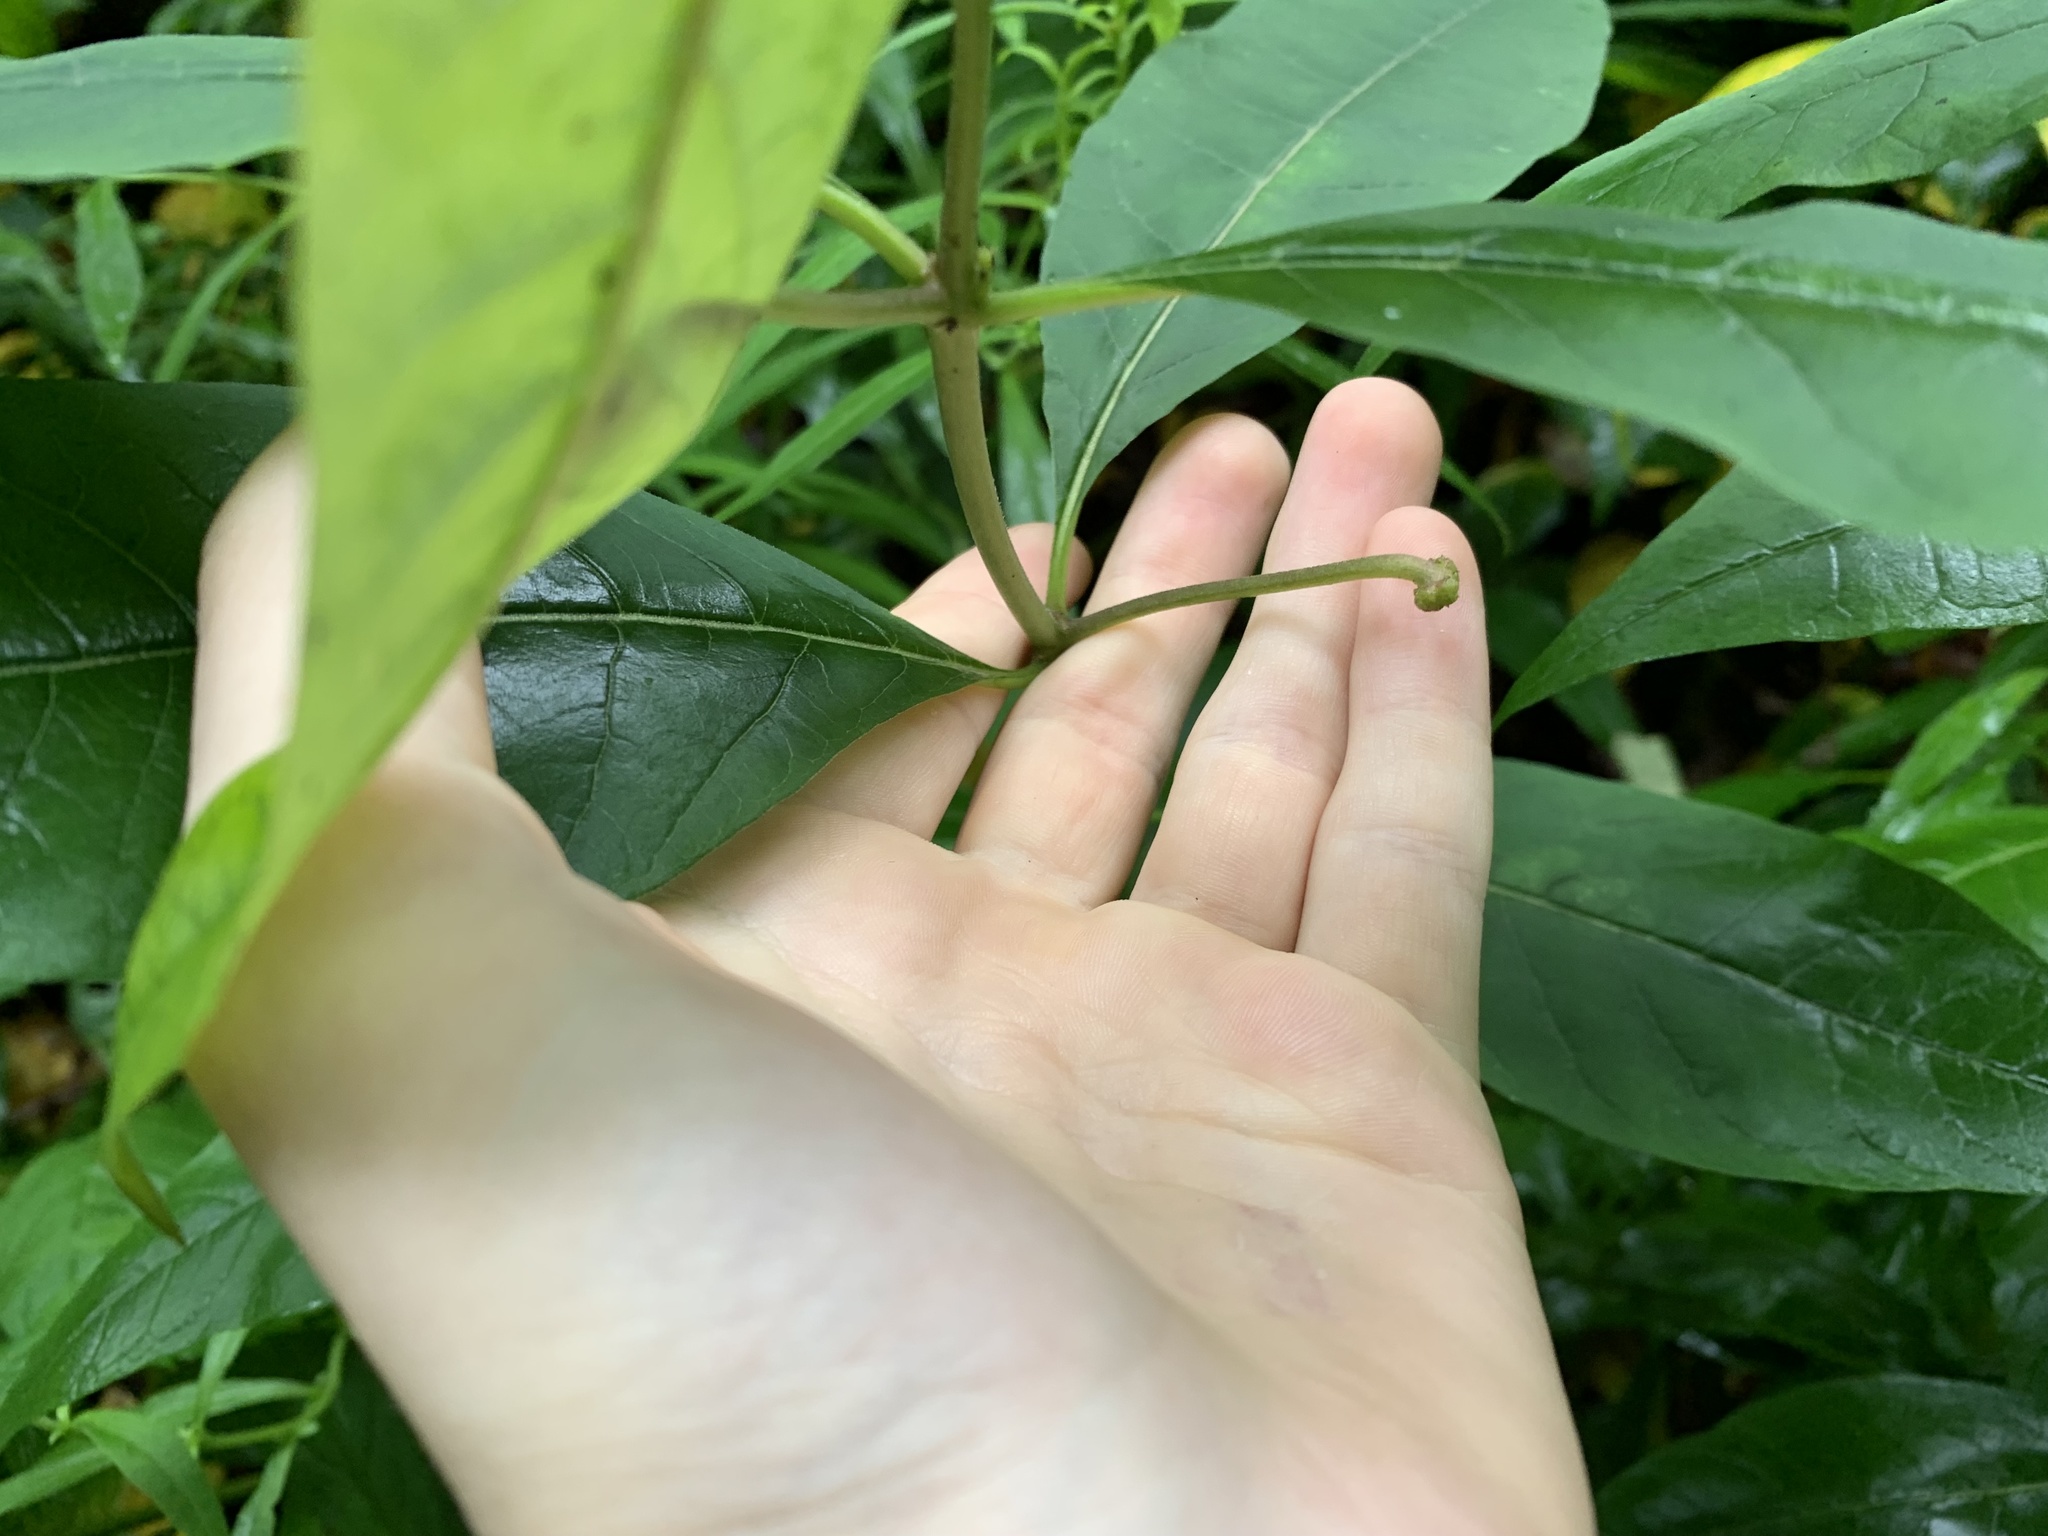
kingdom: Plantae
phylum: Tracheophyta
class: Magnoliopsida
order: Gentianales
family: Apocynaceae
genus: Asclepias
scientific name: Asclepias exaltata
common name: Poke milkweed
